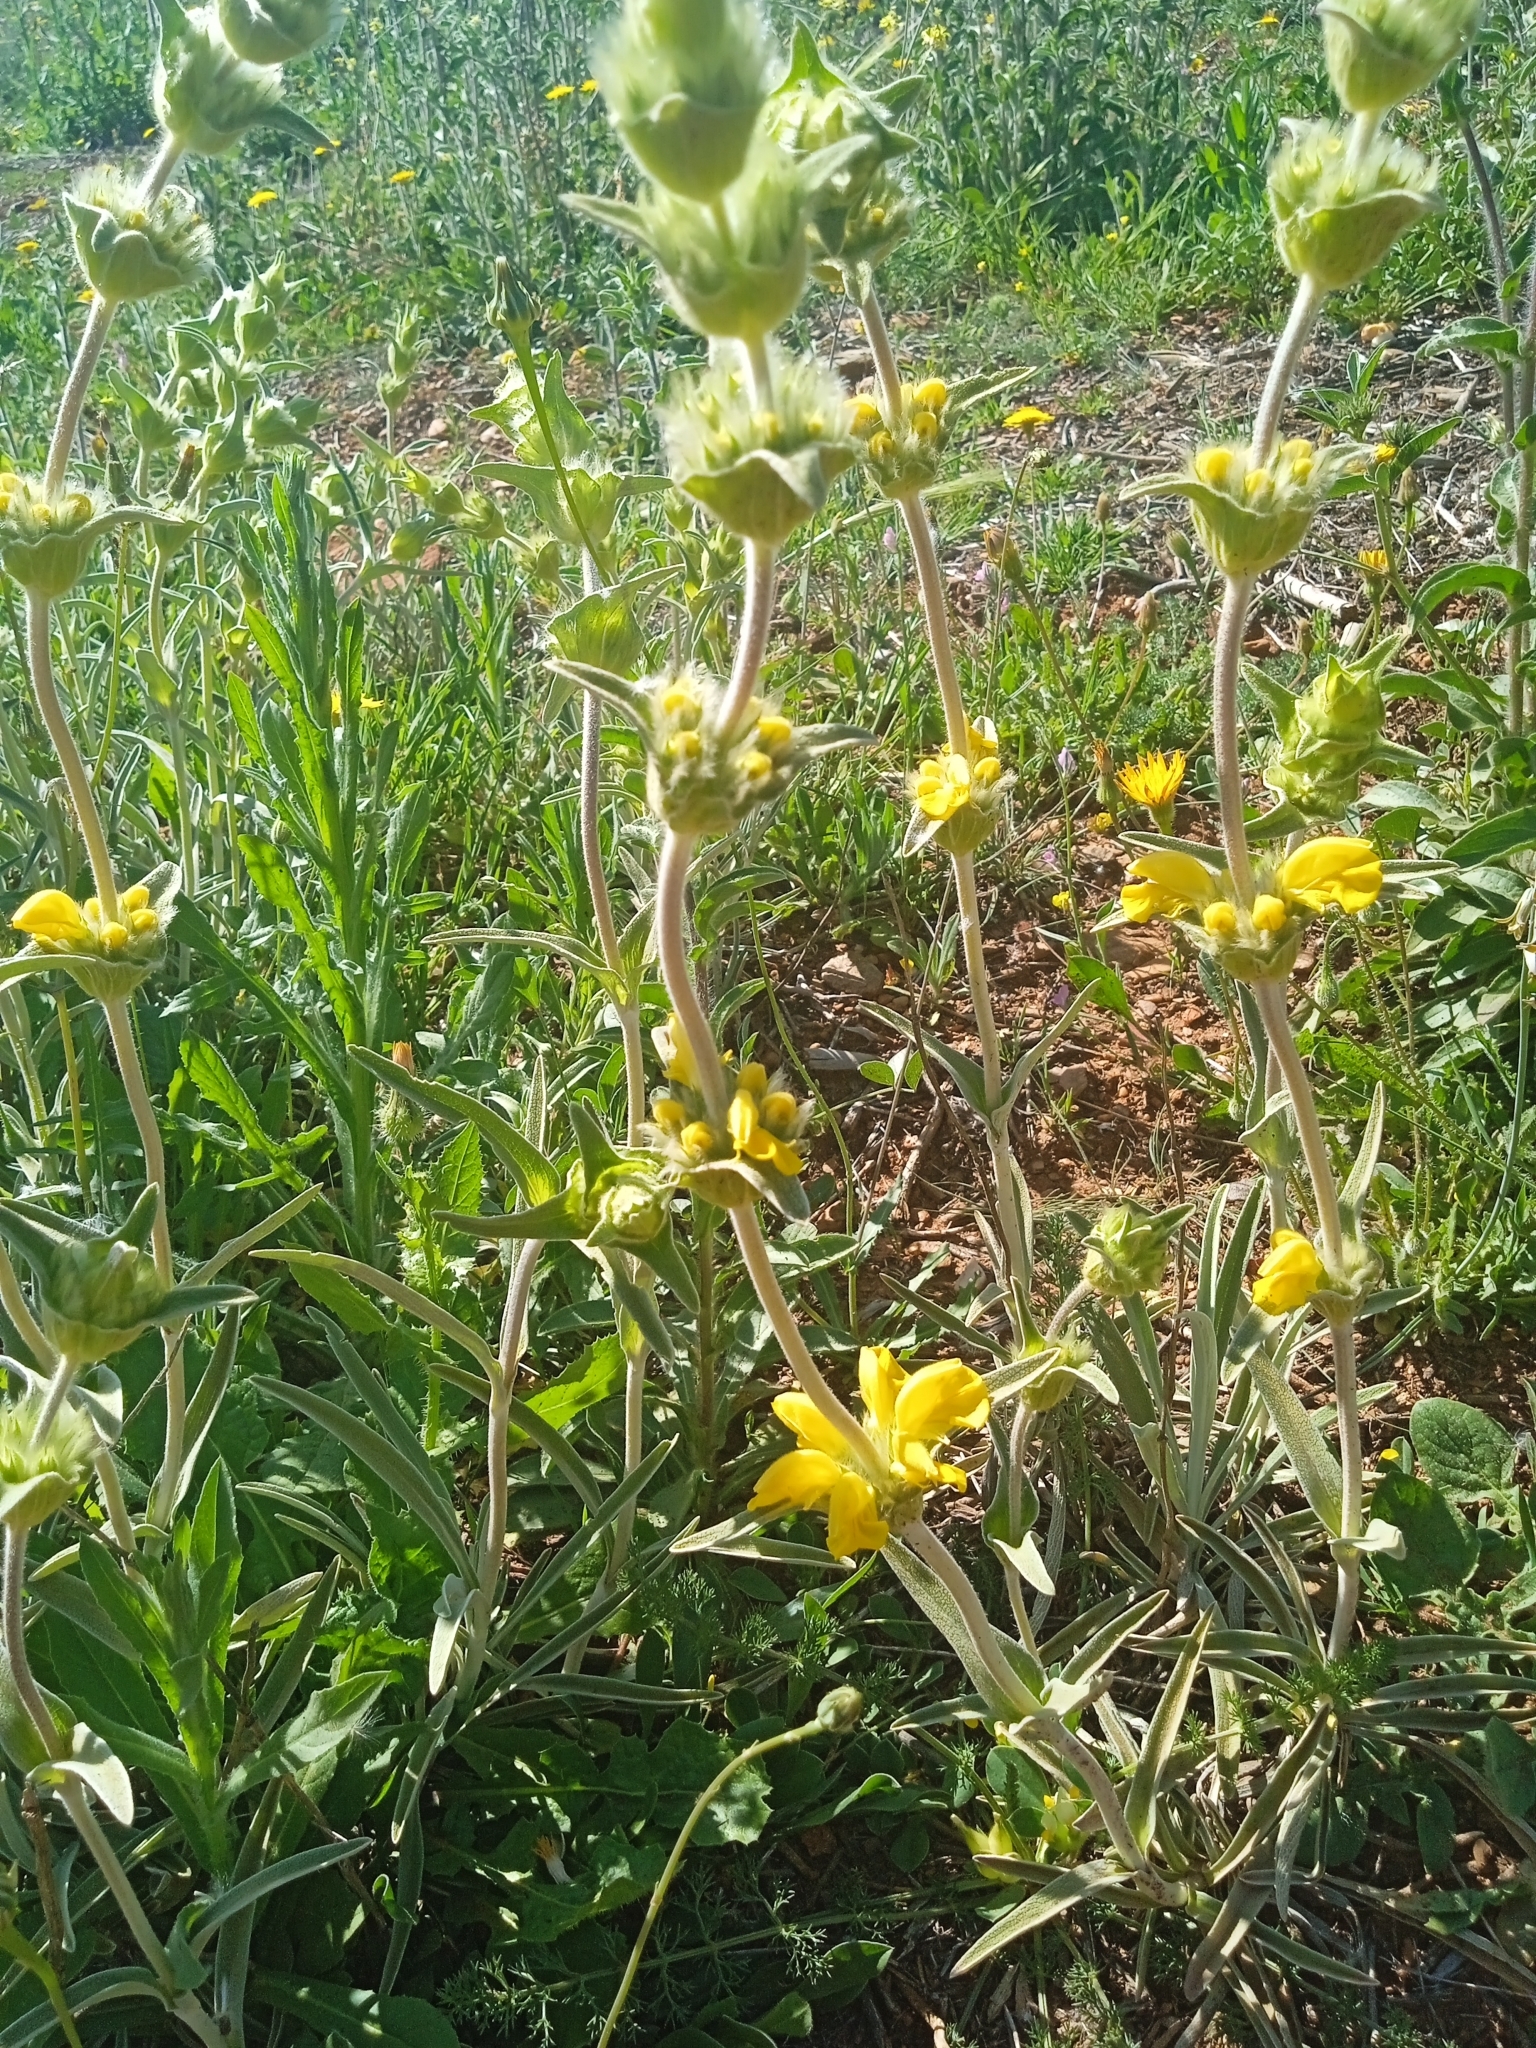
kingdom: Plantae
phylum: Tracheophyta
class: Magnoliopsida
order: Lamiales
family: Lamiaceae
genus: Phlomis
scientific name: Phlomis lychnitis
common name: Lampwickplant
